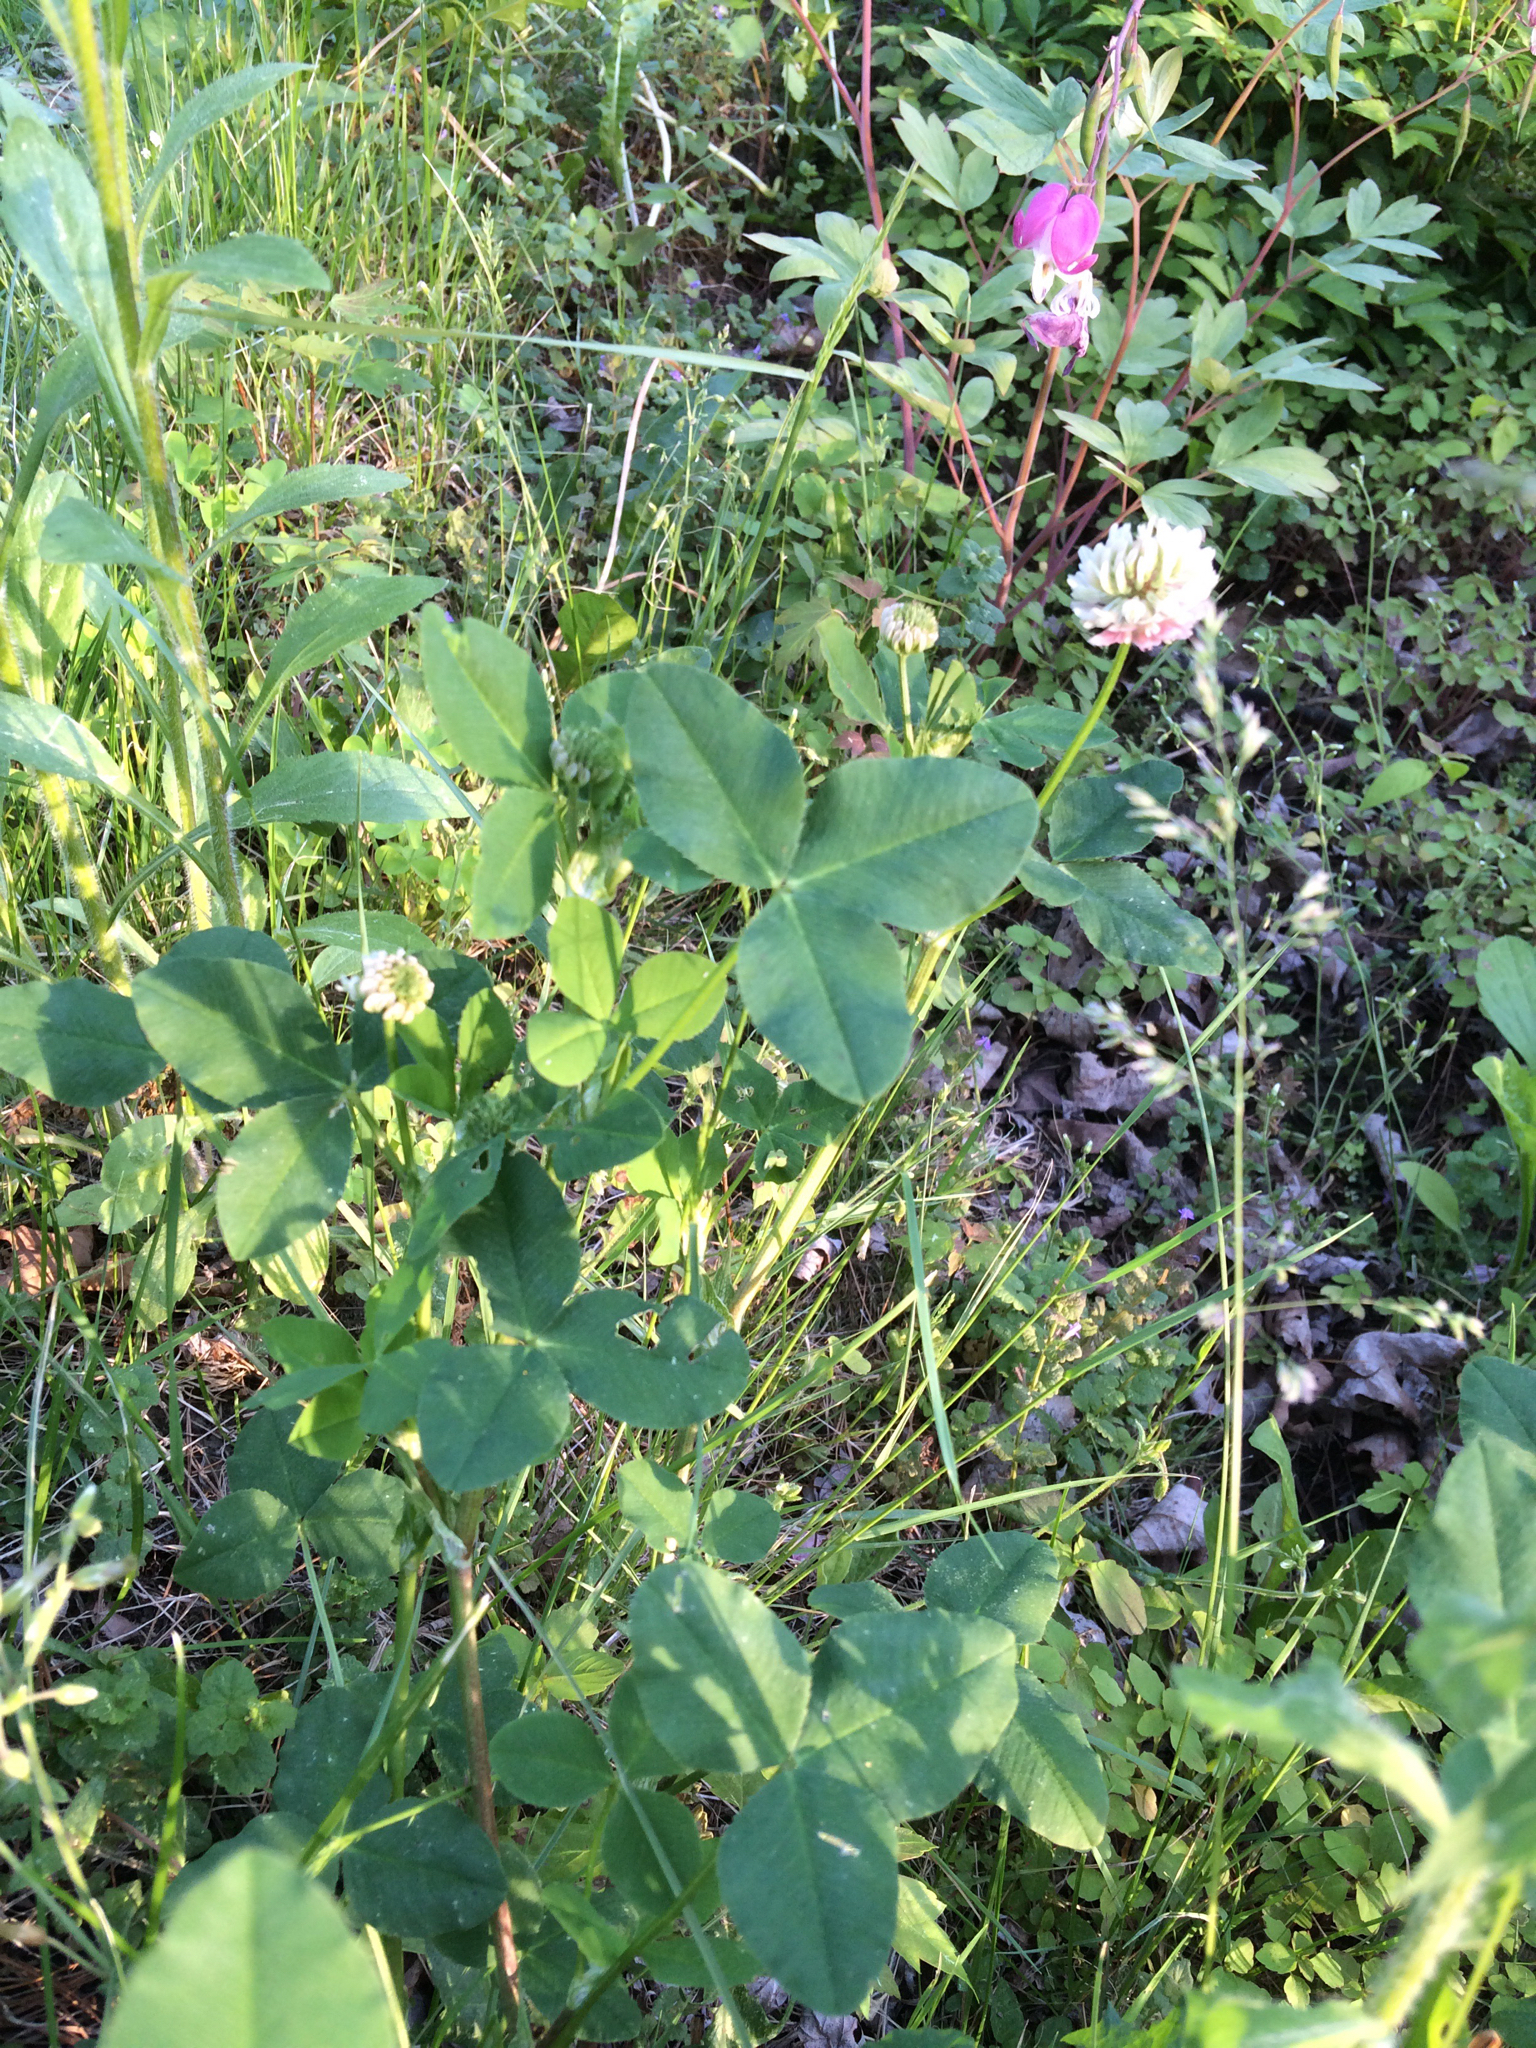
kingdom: Plantae
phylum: Tracheophyta
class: Magnoliopsida
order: Fabales
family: Fabaceae
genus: Trifolium
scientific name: Trifolium hybridum
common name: Alsike clover
